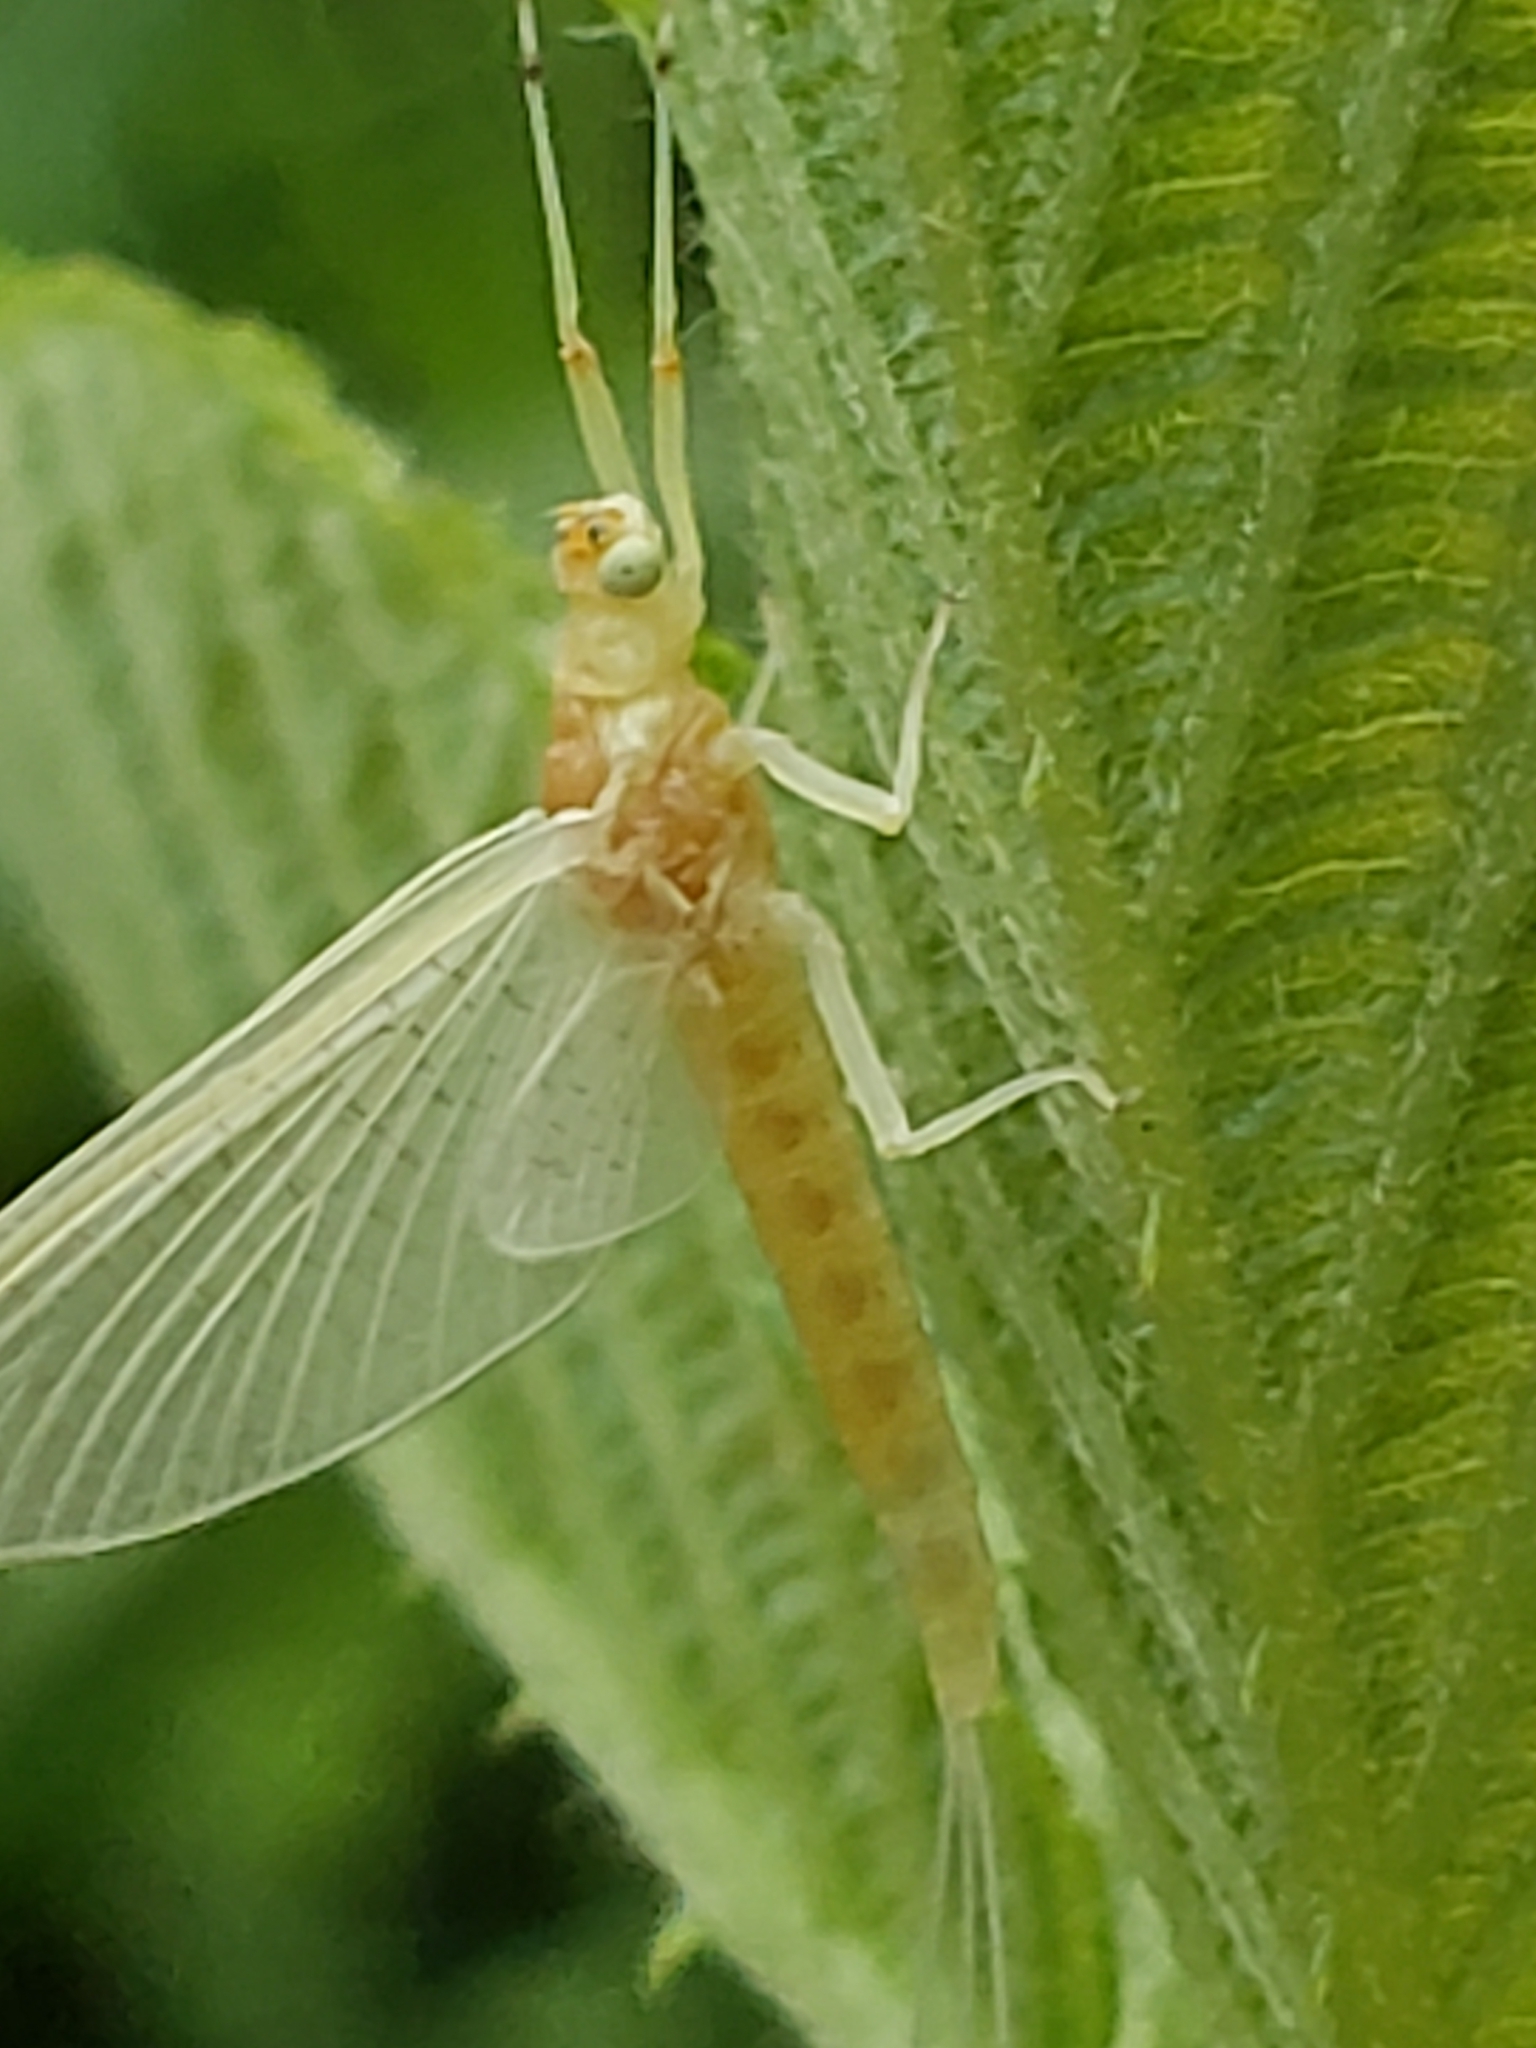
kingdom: Animalia
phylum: Arthropoda
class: Insecta
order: Ephemeroptera
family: Potamanthidae
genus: Anthopotamus
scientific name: Anthopotamus verticis
